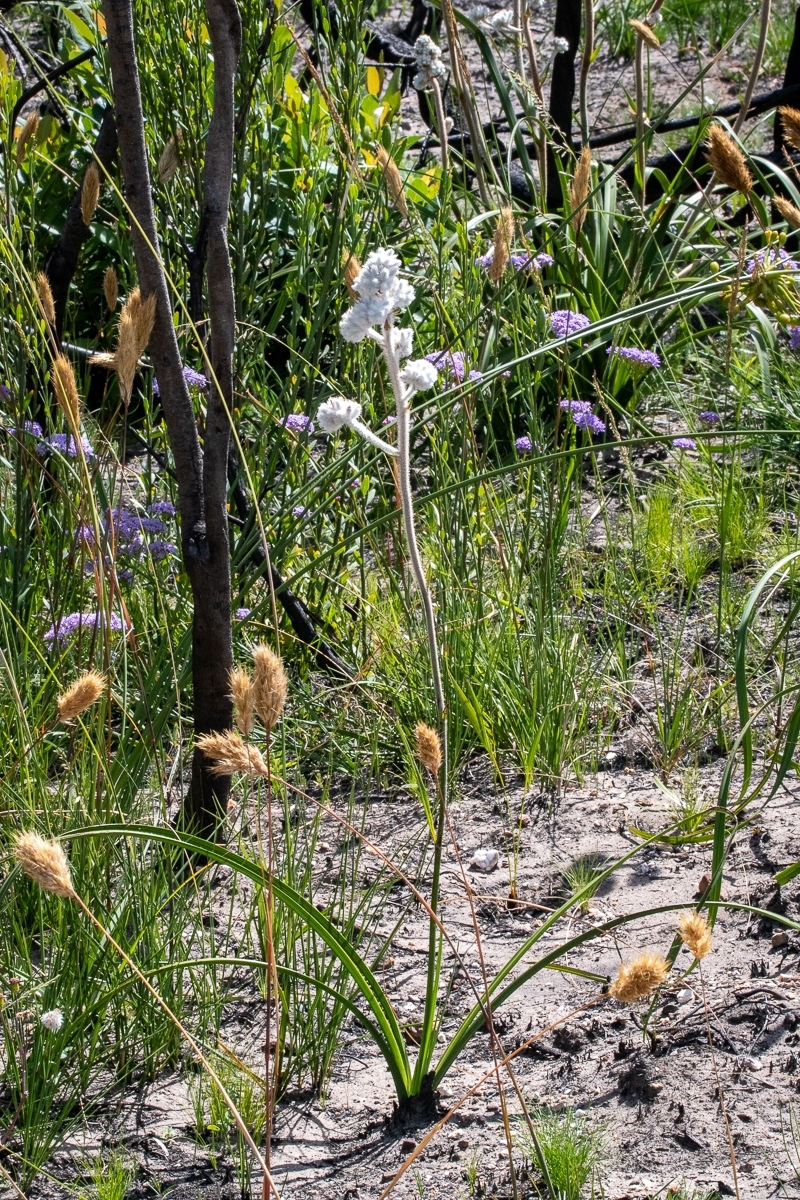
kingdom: Plantae
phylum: Tracheophyta
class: Liliopsida
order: Asparagales
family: Lanariaceae
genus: Lanaria
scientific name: Lanaria lanata
